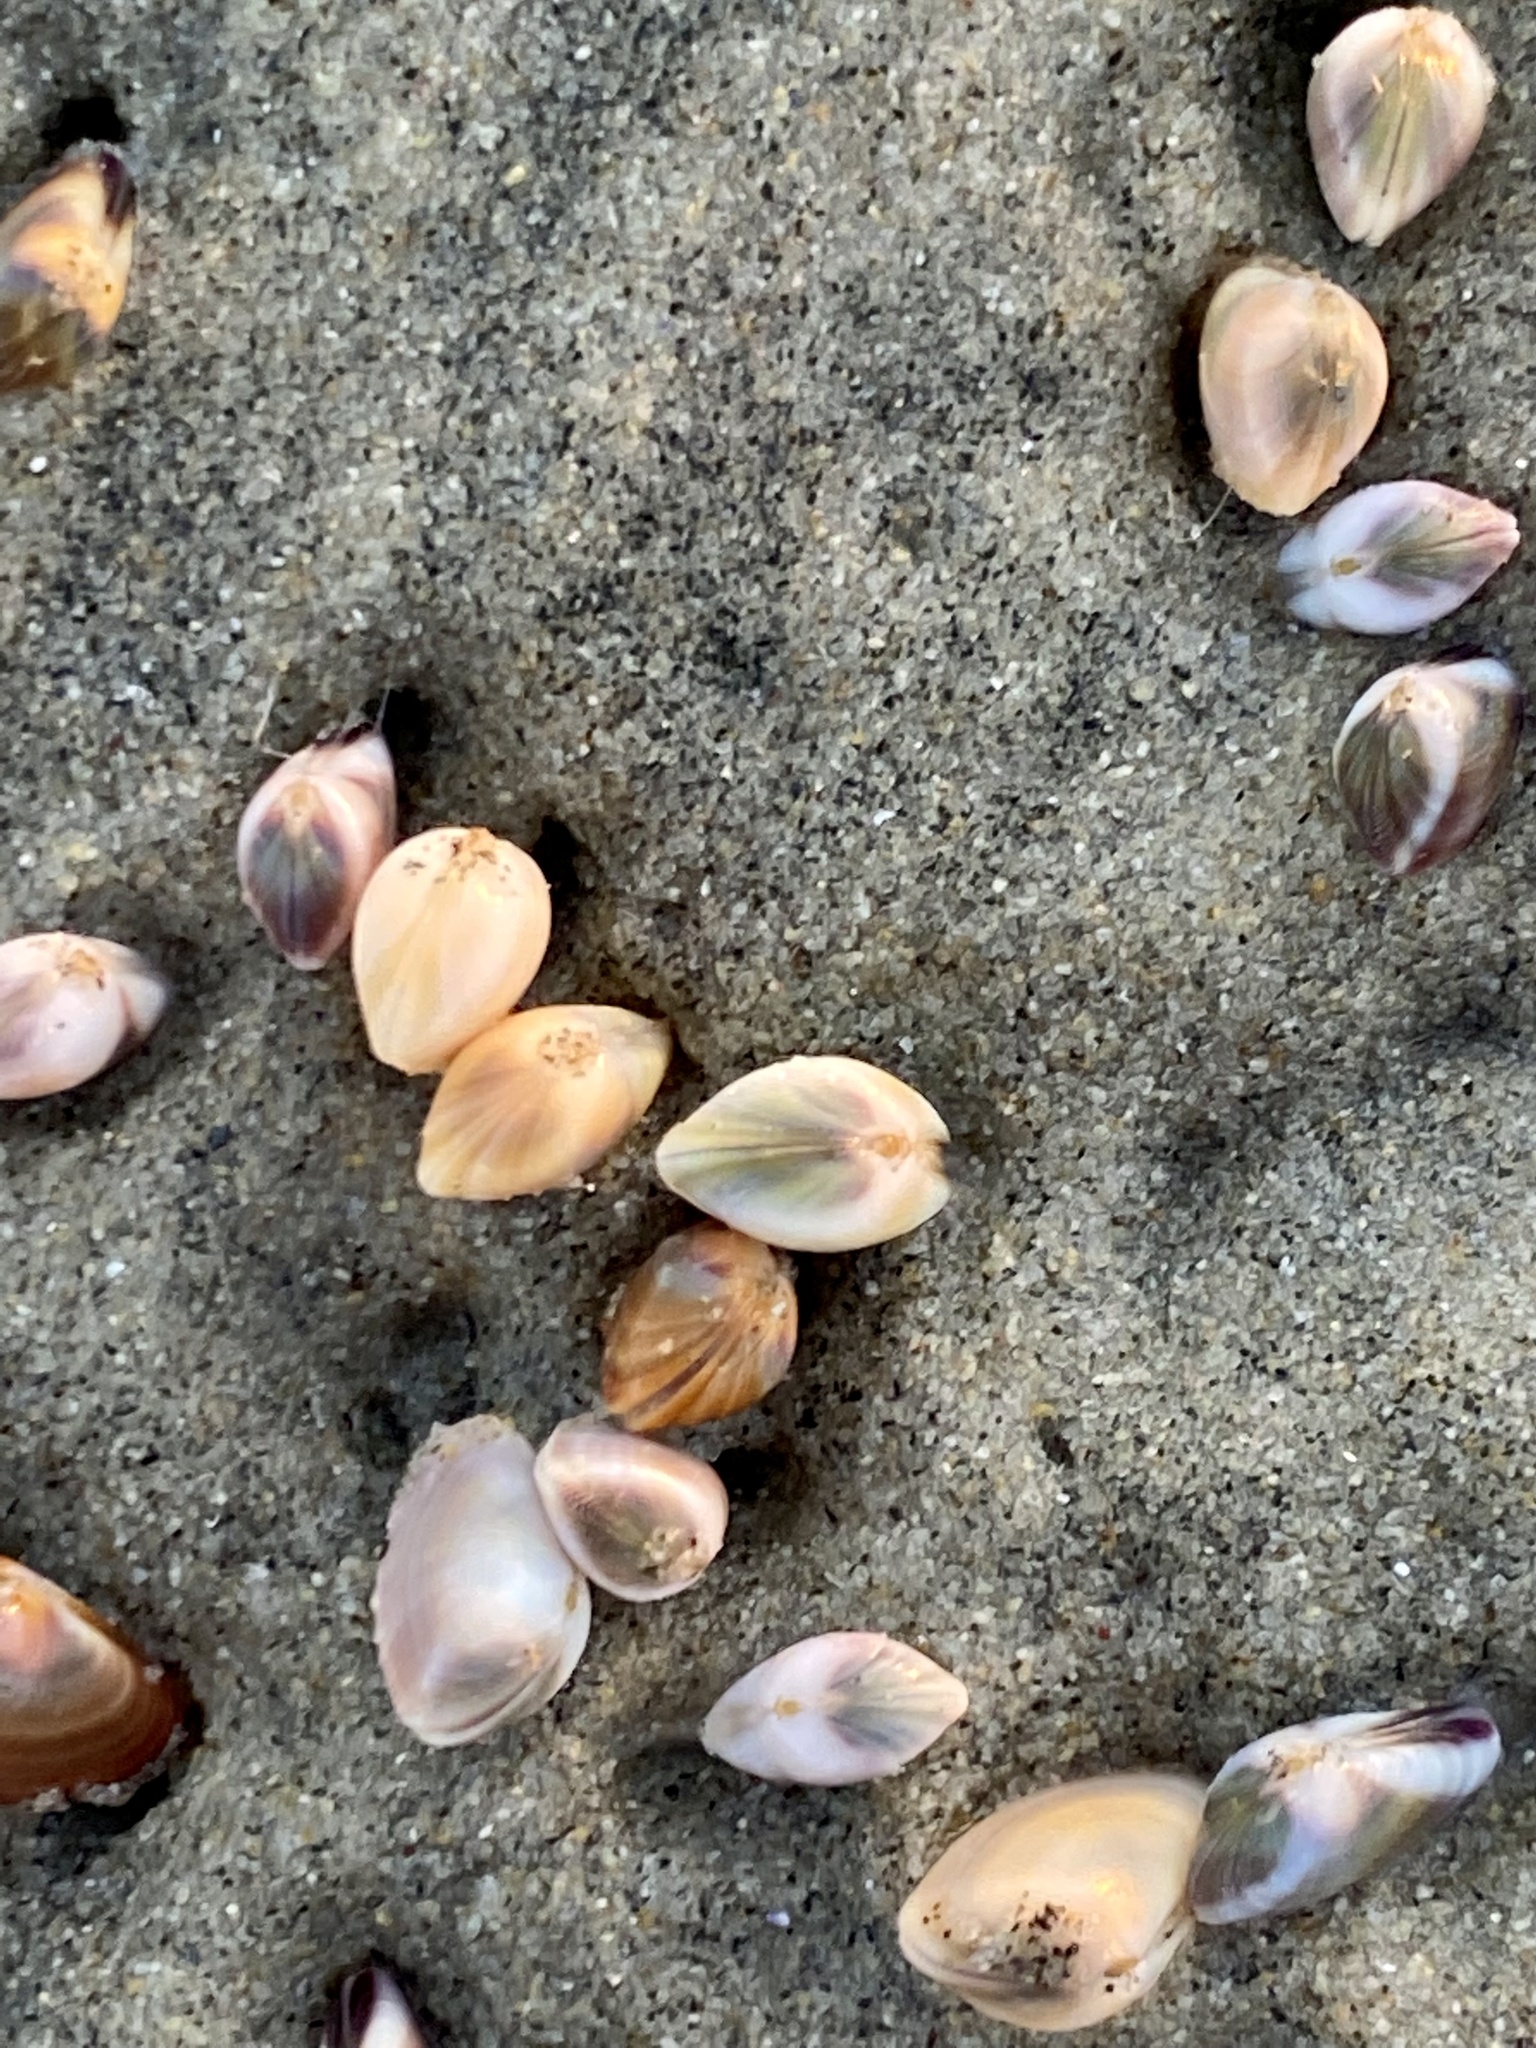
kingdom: Animalia
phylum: Mollusca
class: Bivalvia
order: Cardiida
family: Donacidae
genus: Donax
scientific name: Donax gouldii
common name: Gould beanclam
